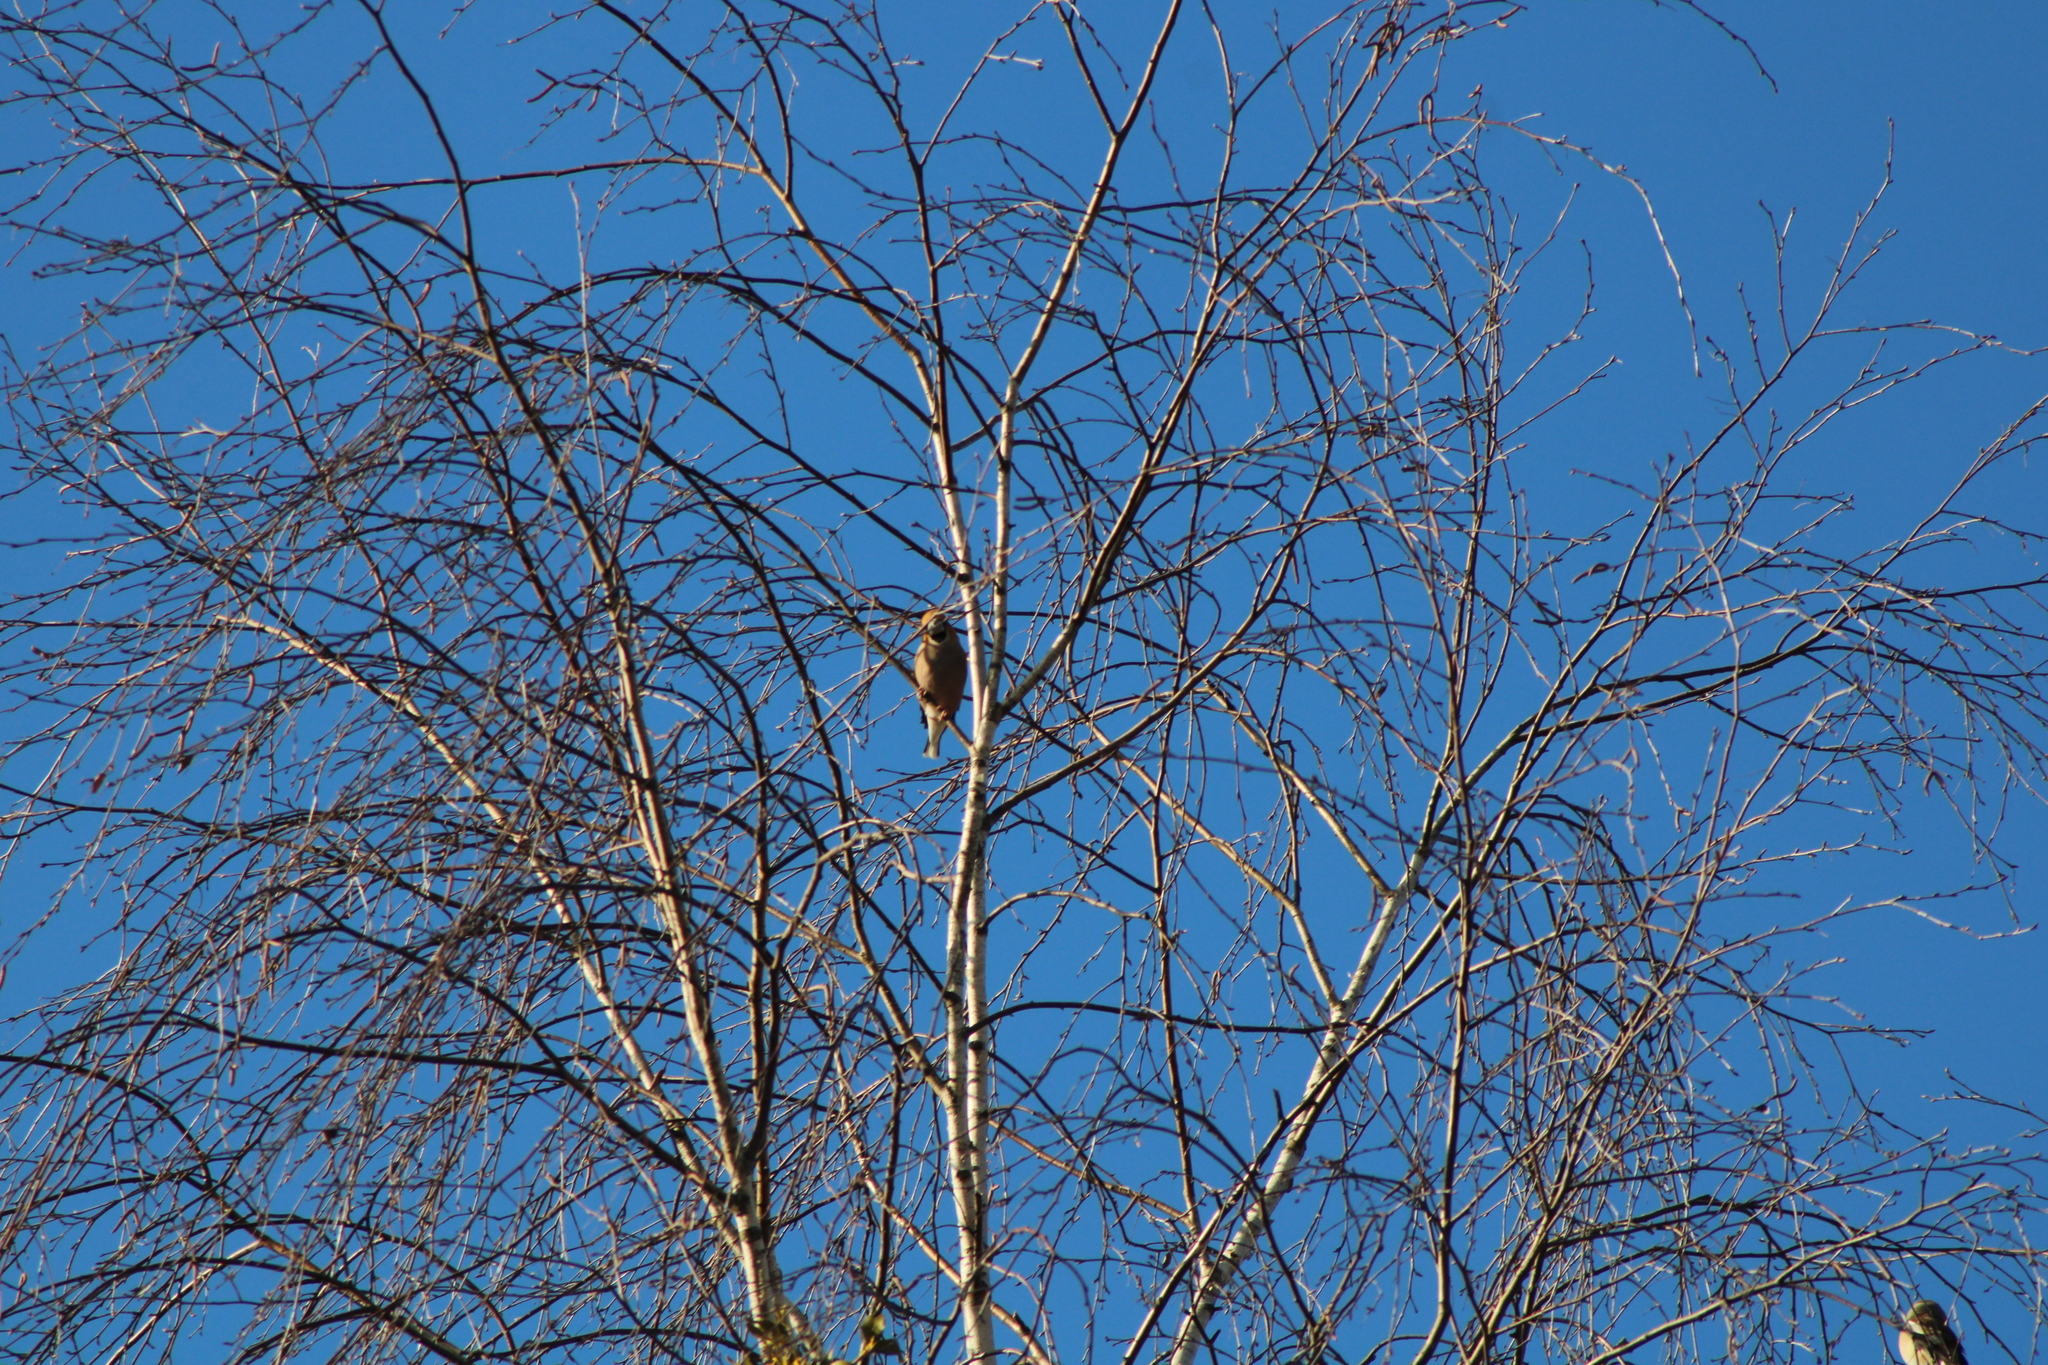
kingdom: Animalia
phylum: Chordata
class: Aves
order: Passeriformes
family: Fringillidae
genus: Coccothraustes
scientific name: Coccothraustes coccothraustes
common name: Hawfinch
